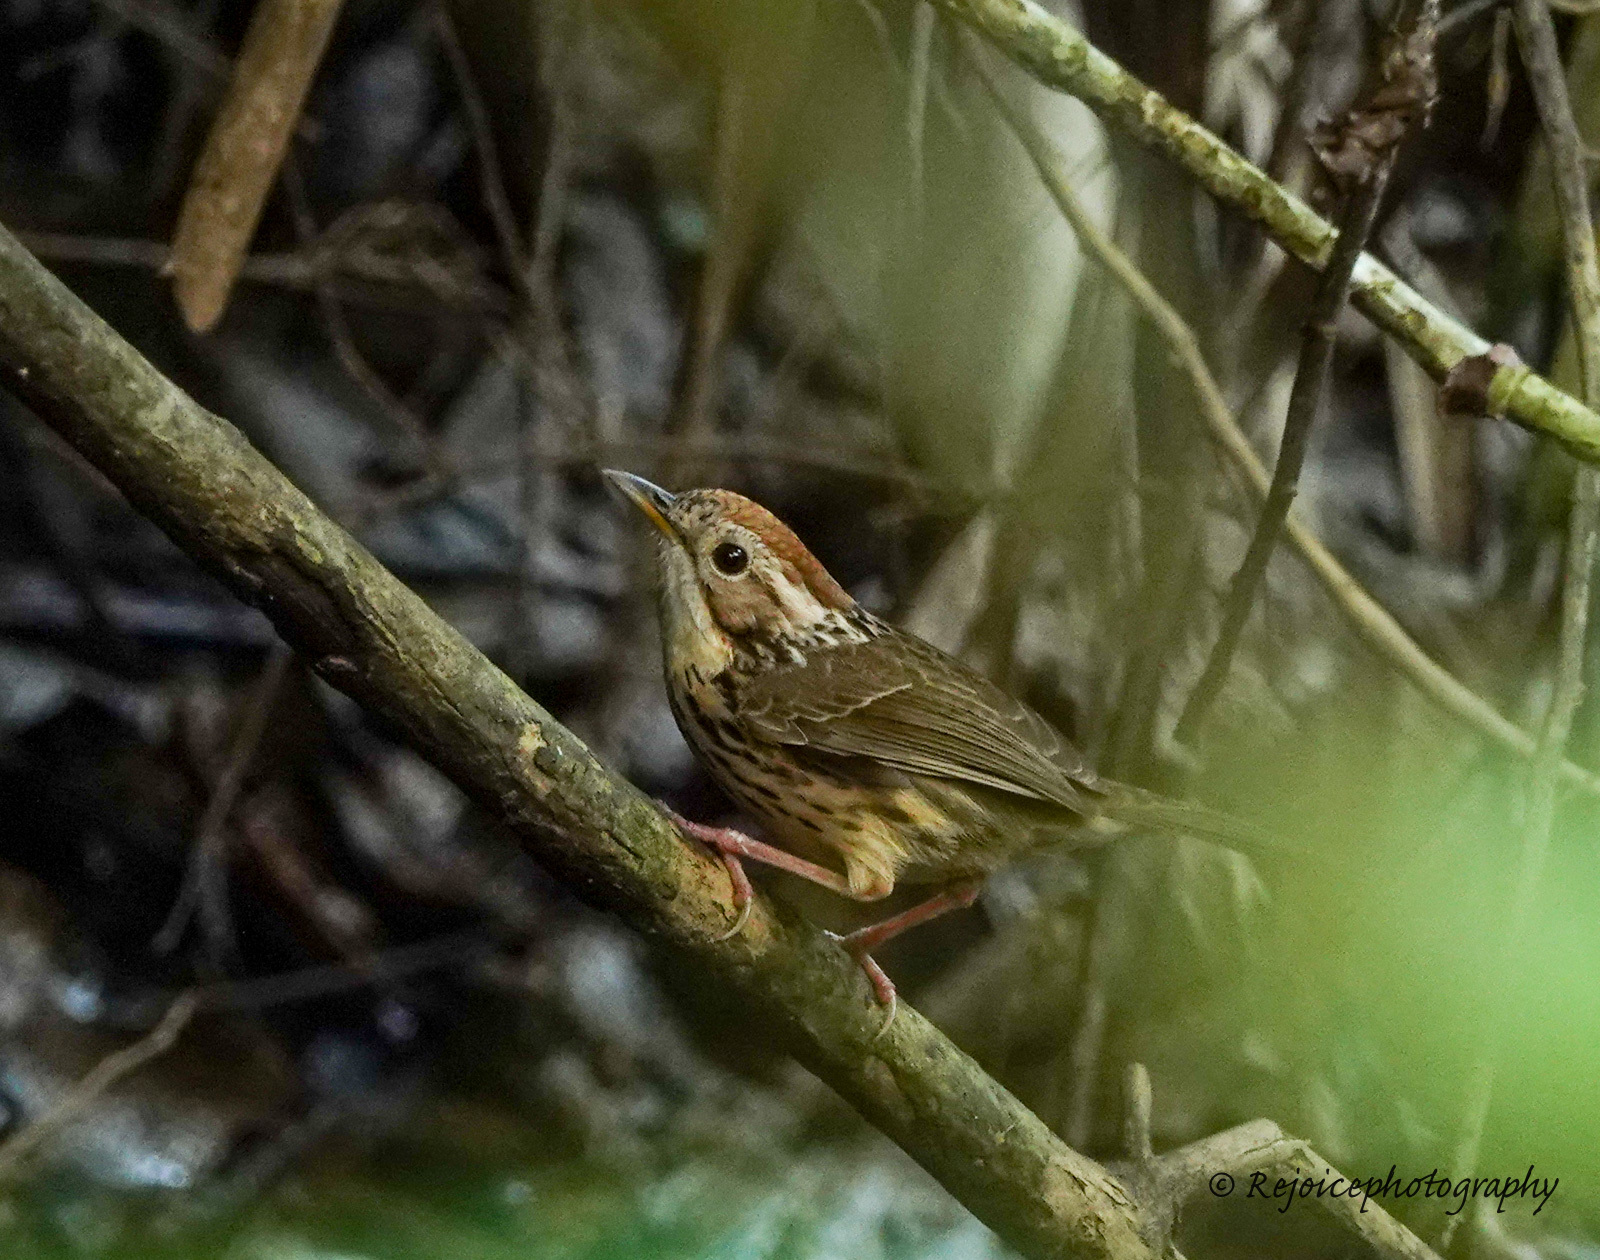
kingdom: Animalia
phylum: Chordata
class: Aves
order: Passeriformes
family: Pellorneidae
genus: Pellorneum
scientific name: Pellorneum ruficeps
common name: Puff-throated babbler
